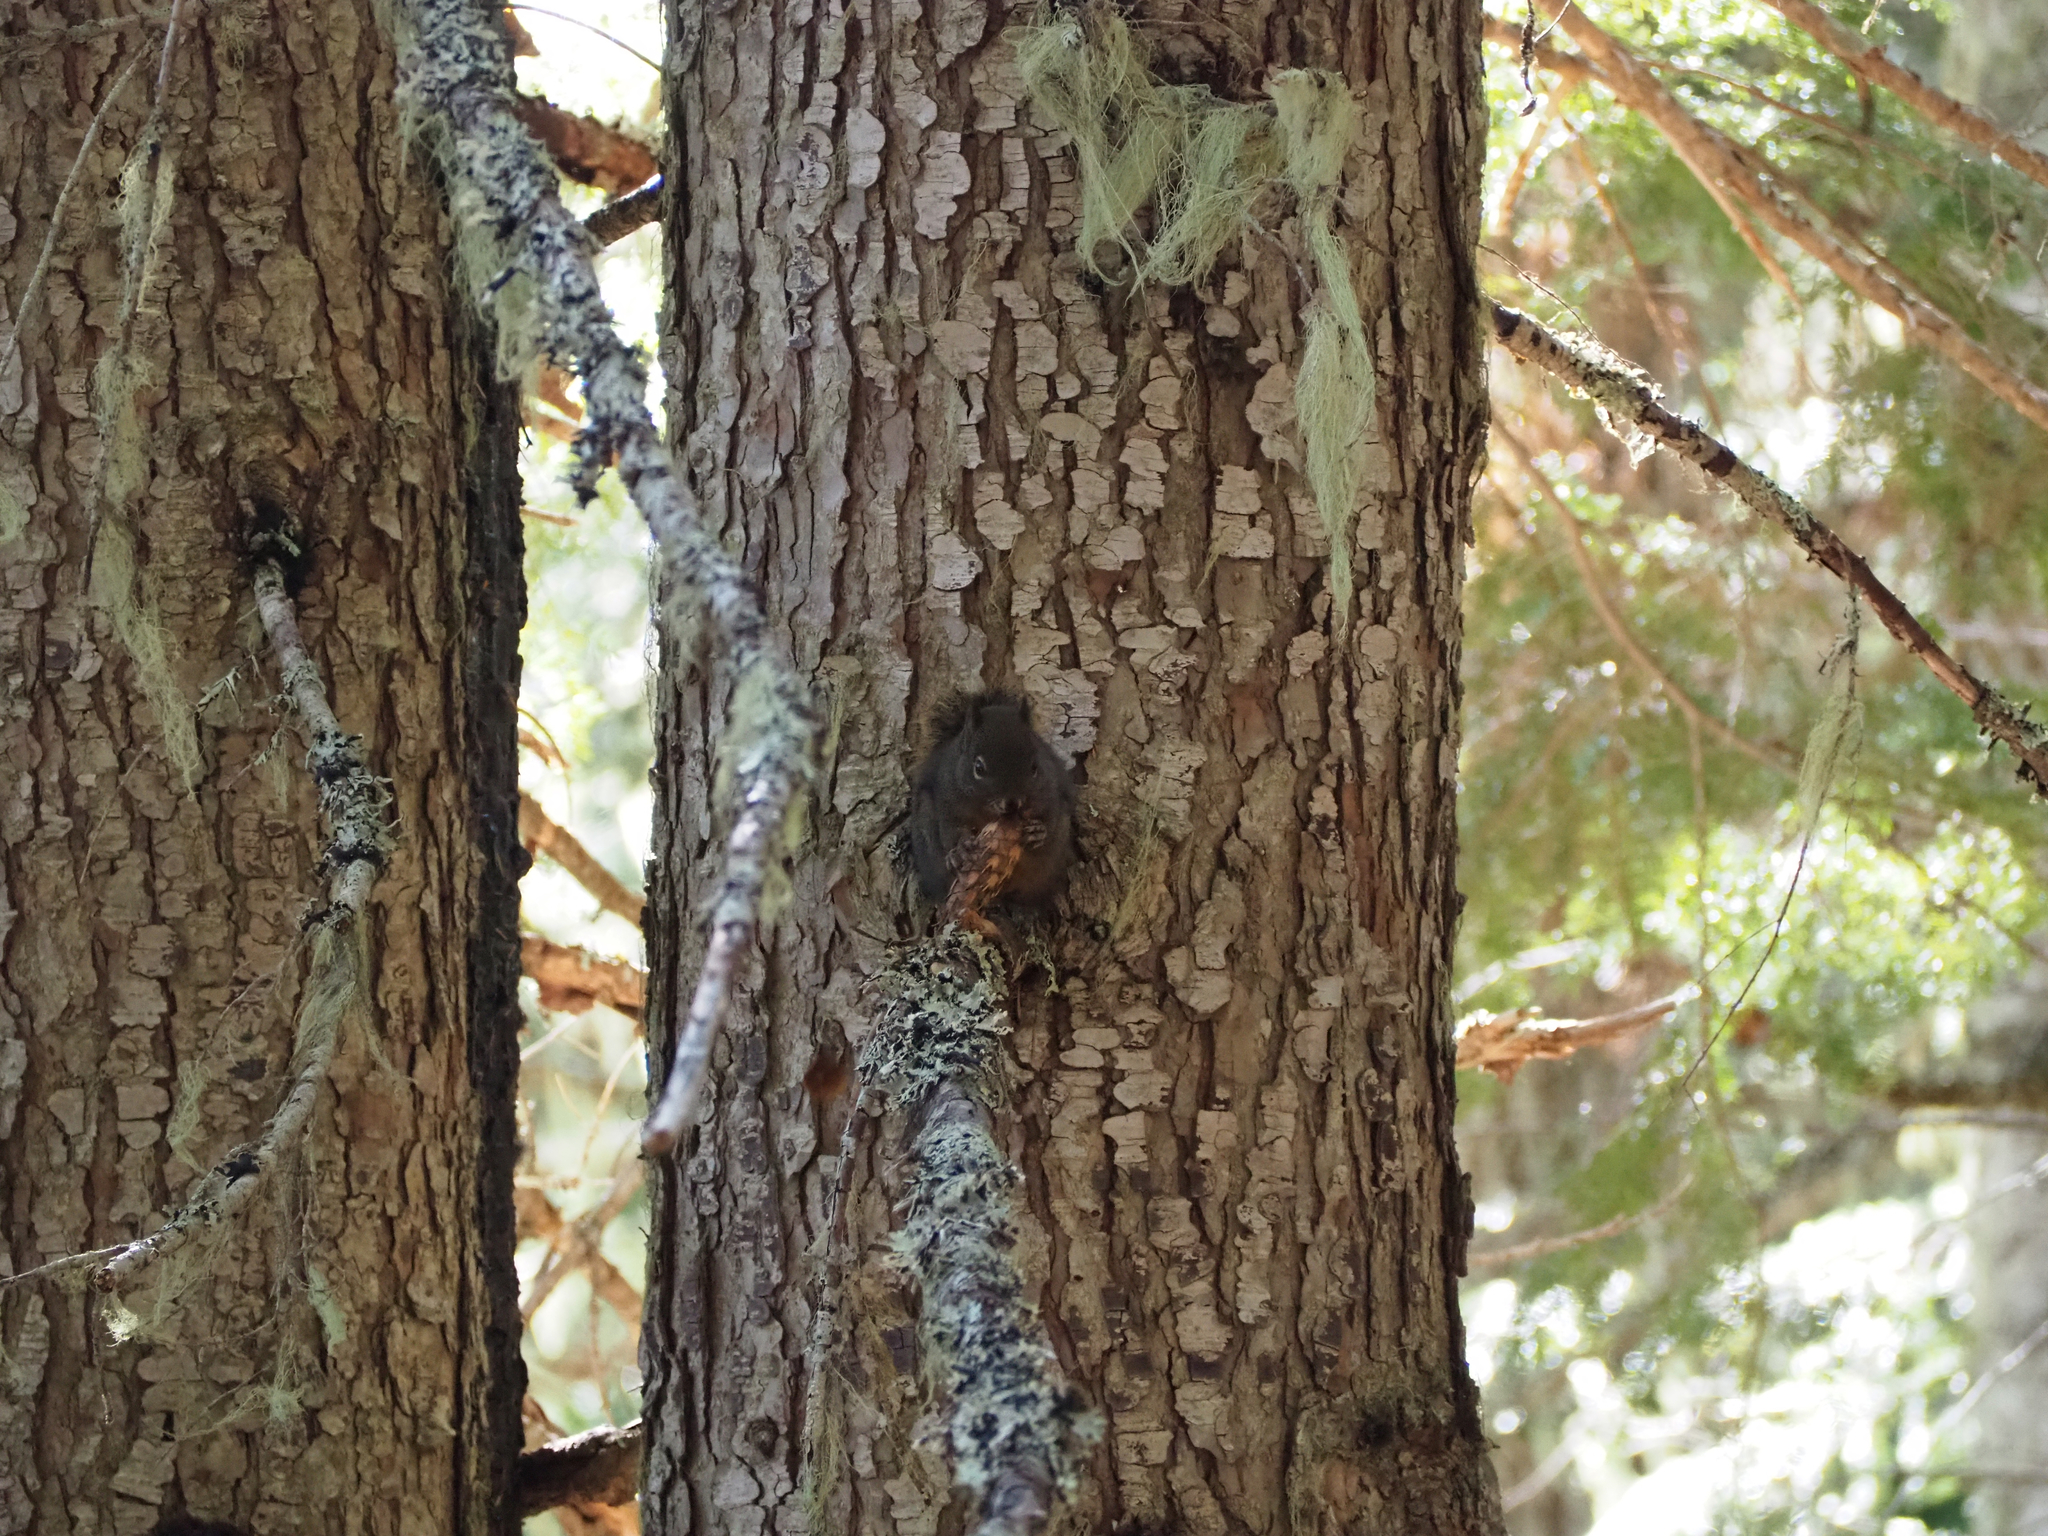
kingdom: Animalia
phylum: Chordata
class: Mammalia
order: Rodentia
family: Sciuridae
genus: Tamiasciurus
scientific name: Tamiasciurus douglasii
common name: Douglas's squirrel
